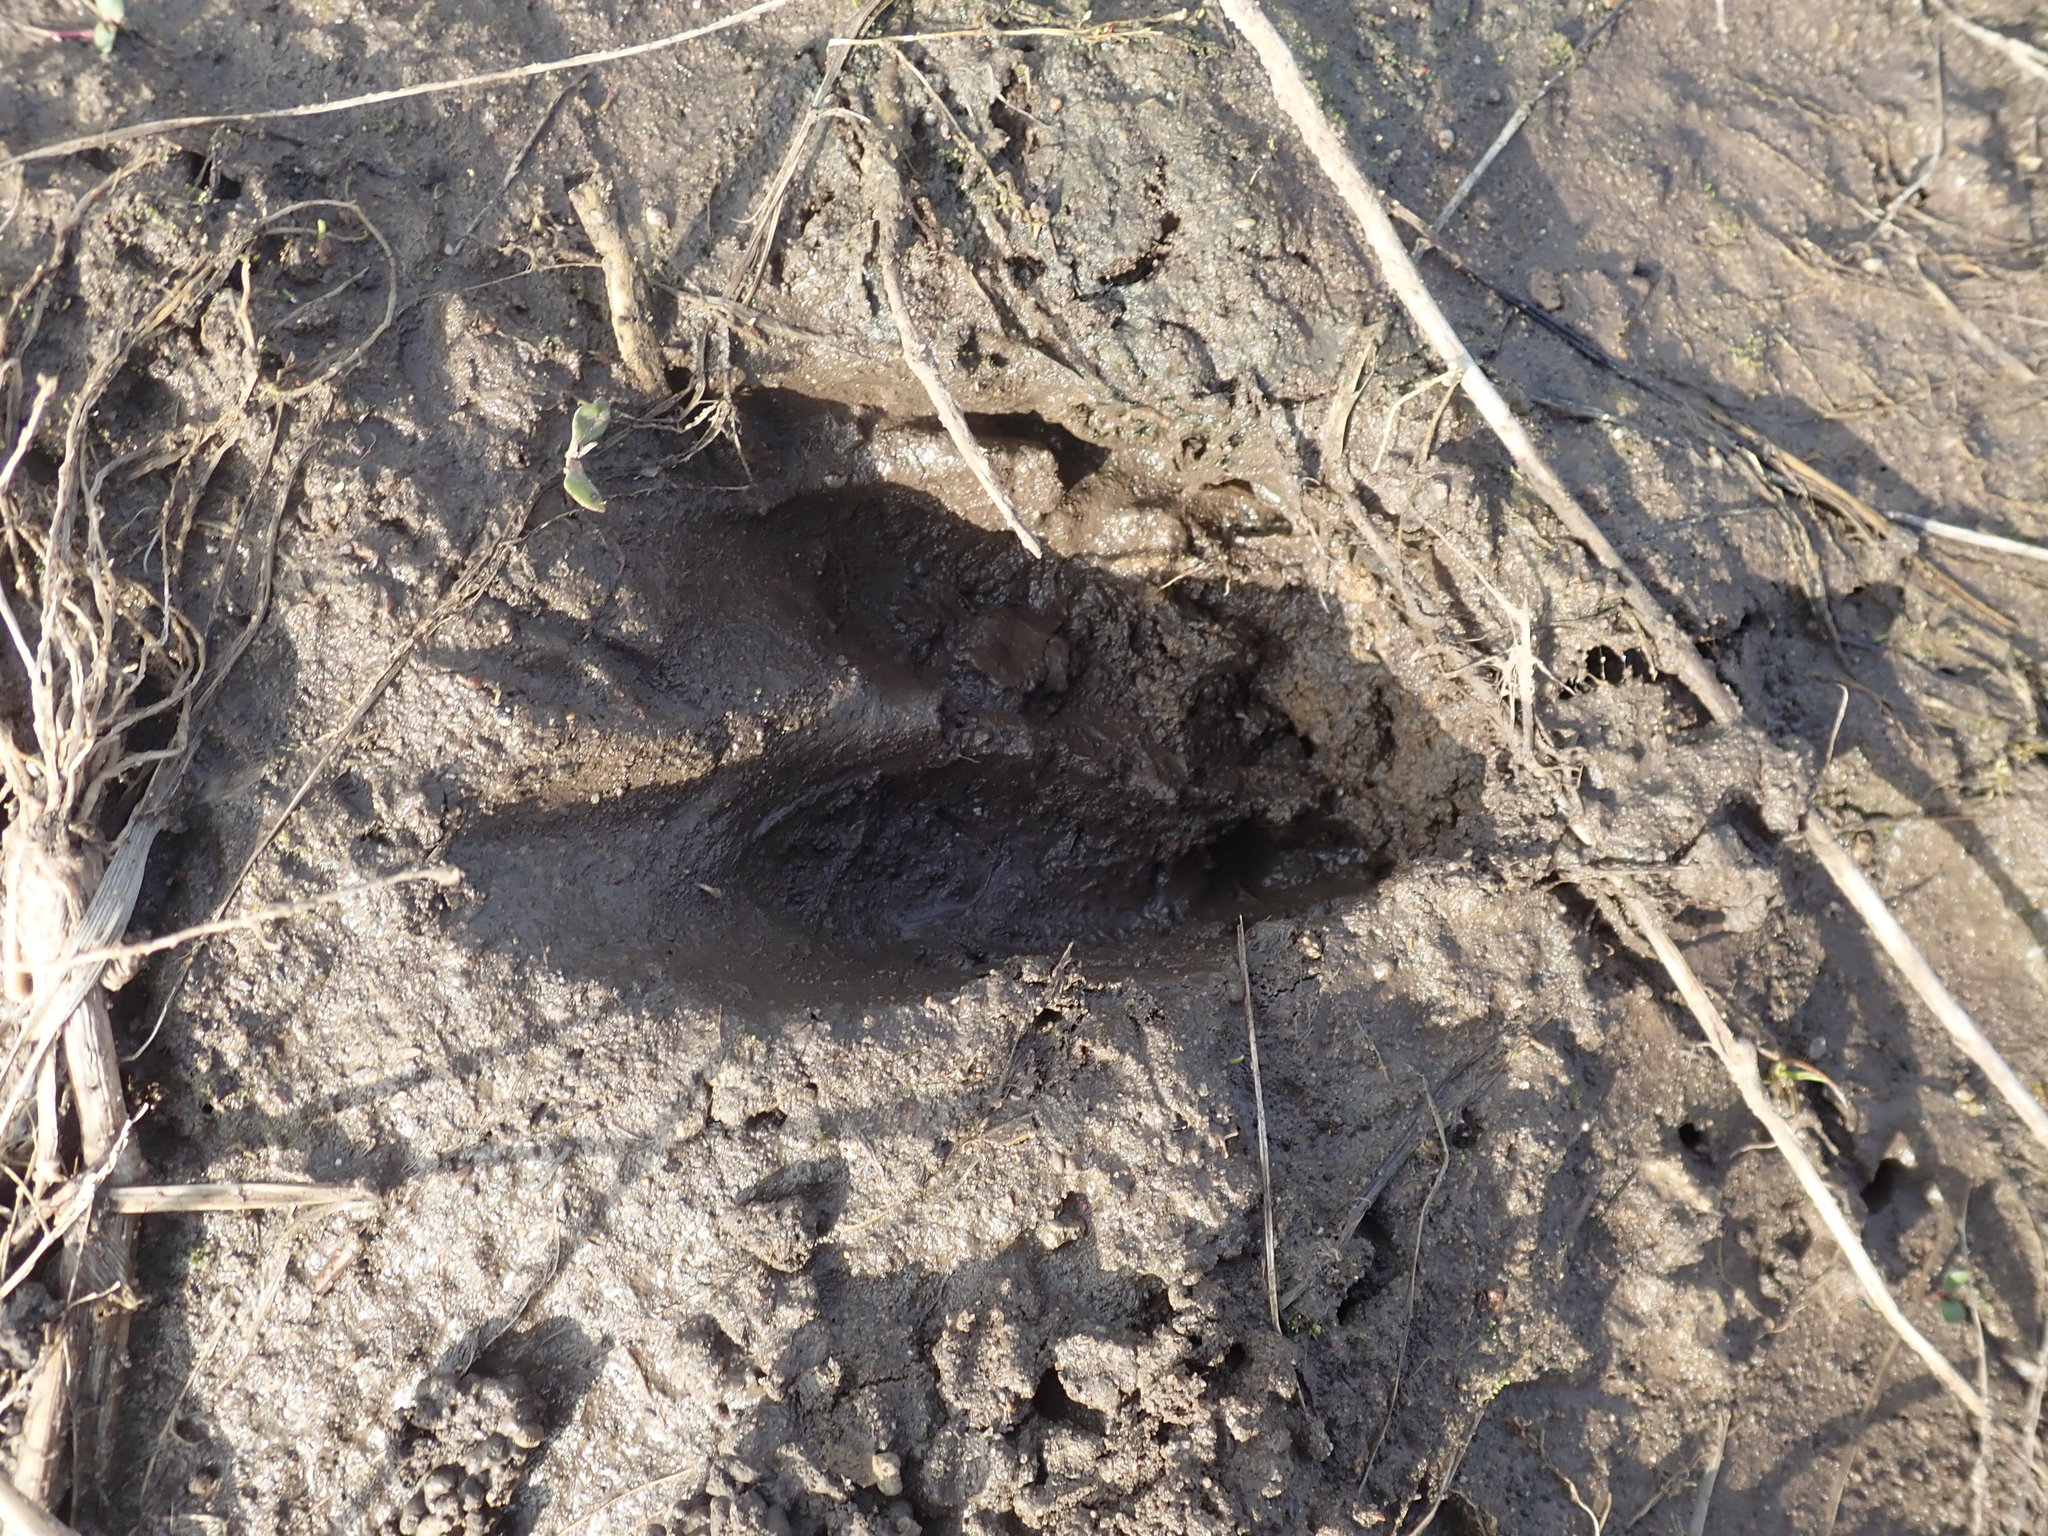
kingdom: Animalia
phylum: Chordata
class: Mammalia
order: Artiodactyla
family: Cervidae
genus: Odocoileus
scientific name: Odocoileus virginianus
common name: White-tailed deer
